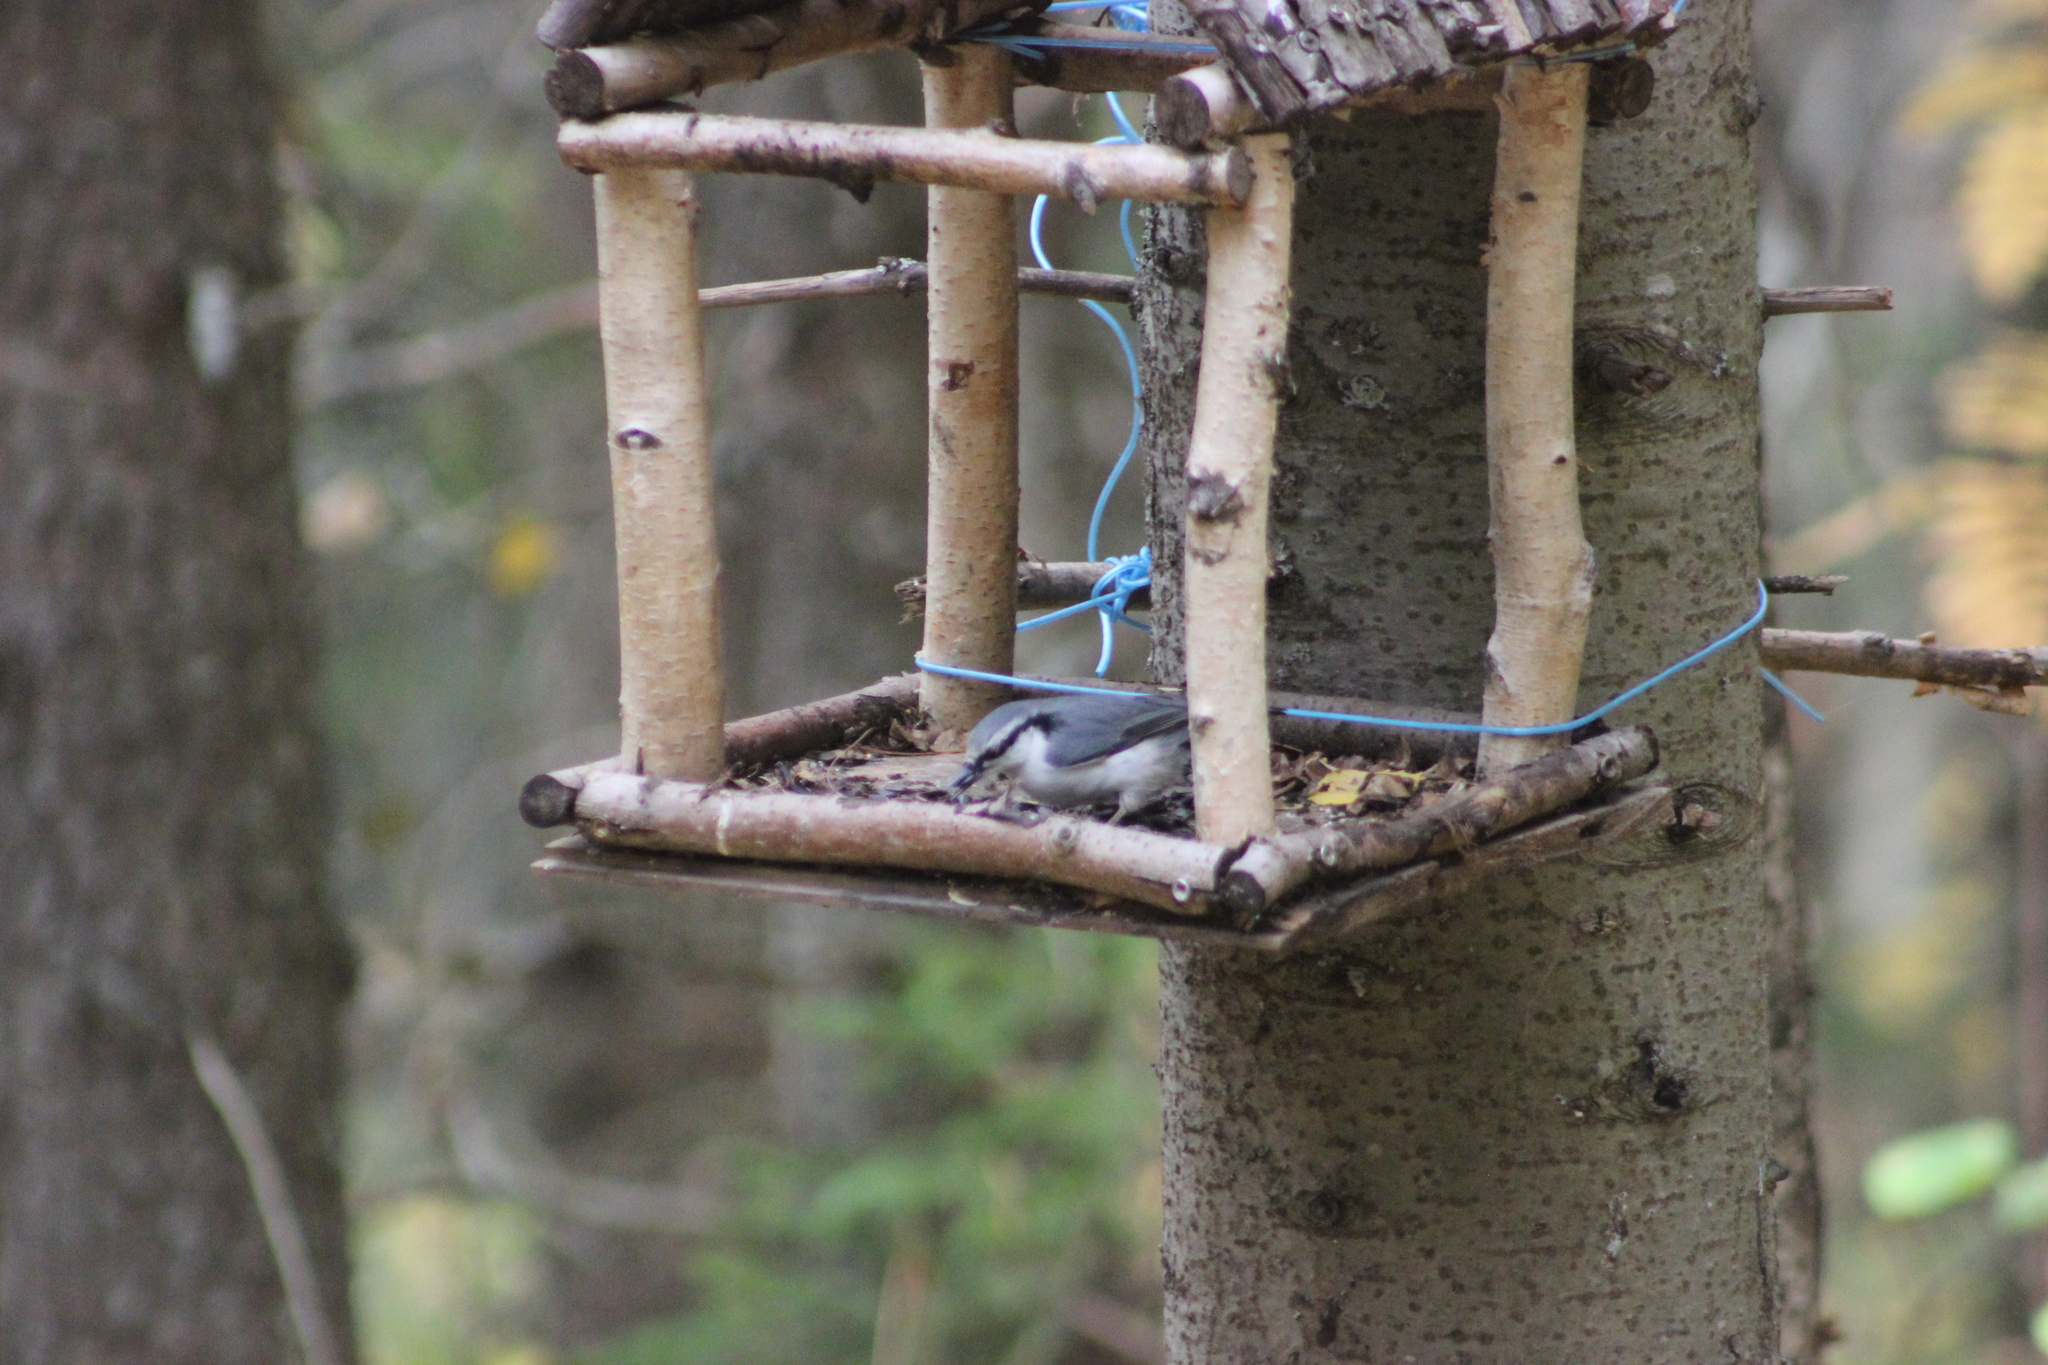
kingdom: Animalia
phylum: Chordata
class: Aves
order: Passeriformes
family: Sittidae
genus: Sitta
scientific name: Sitta europaea
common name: Eurasian nuthatch
